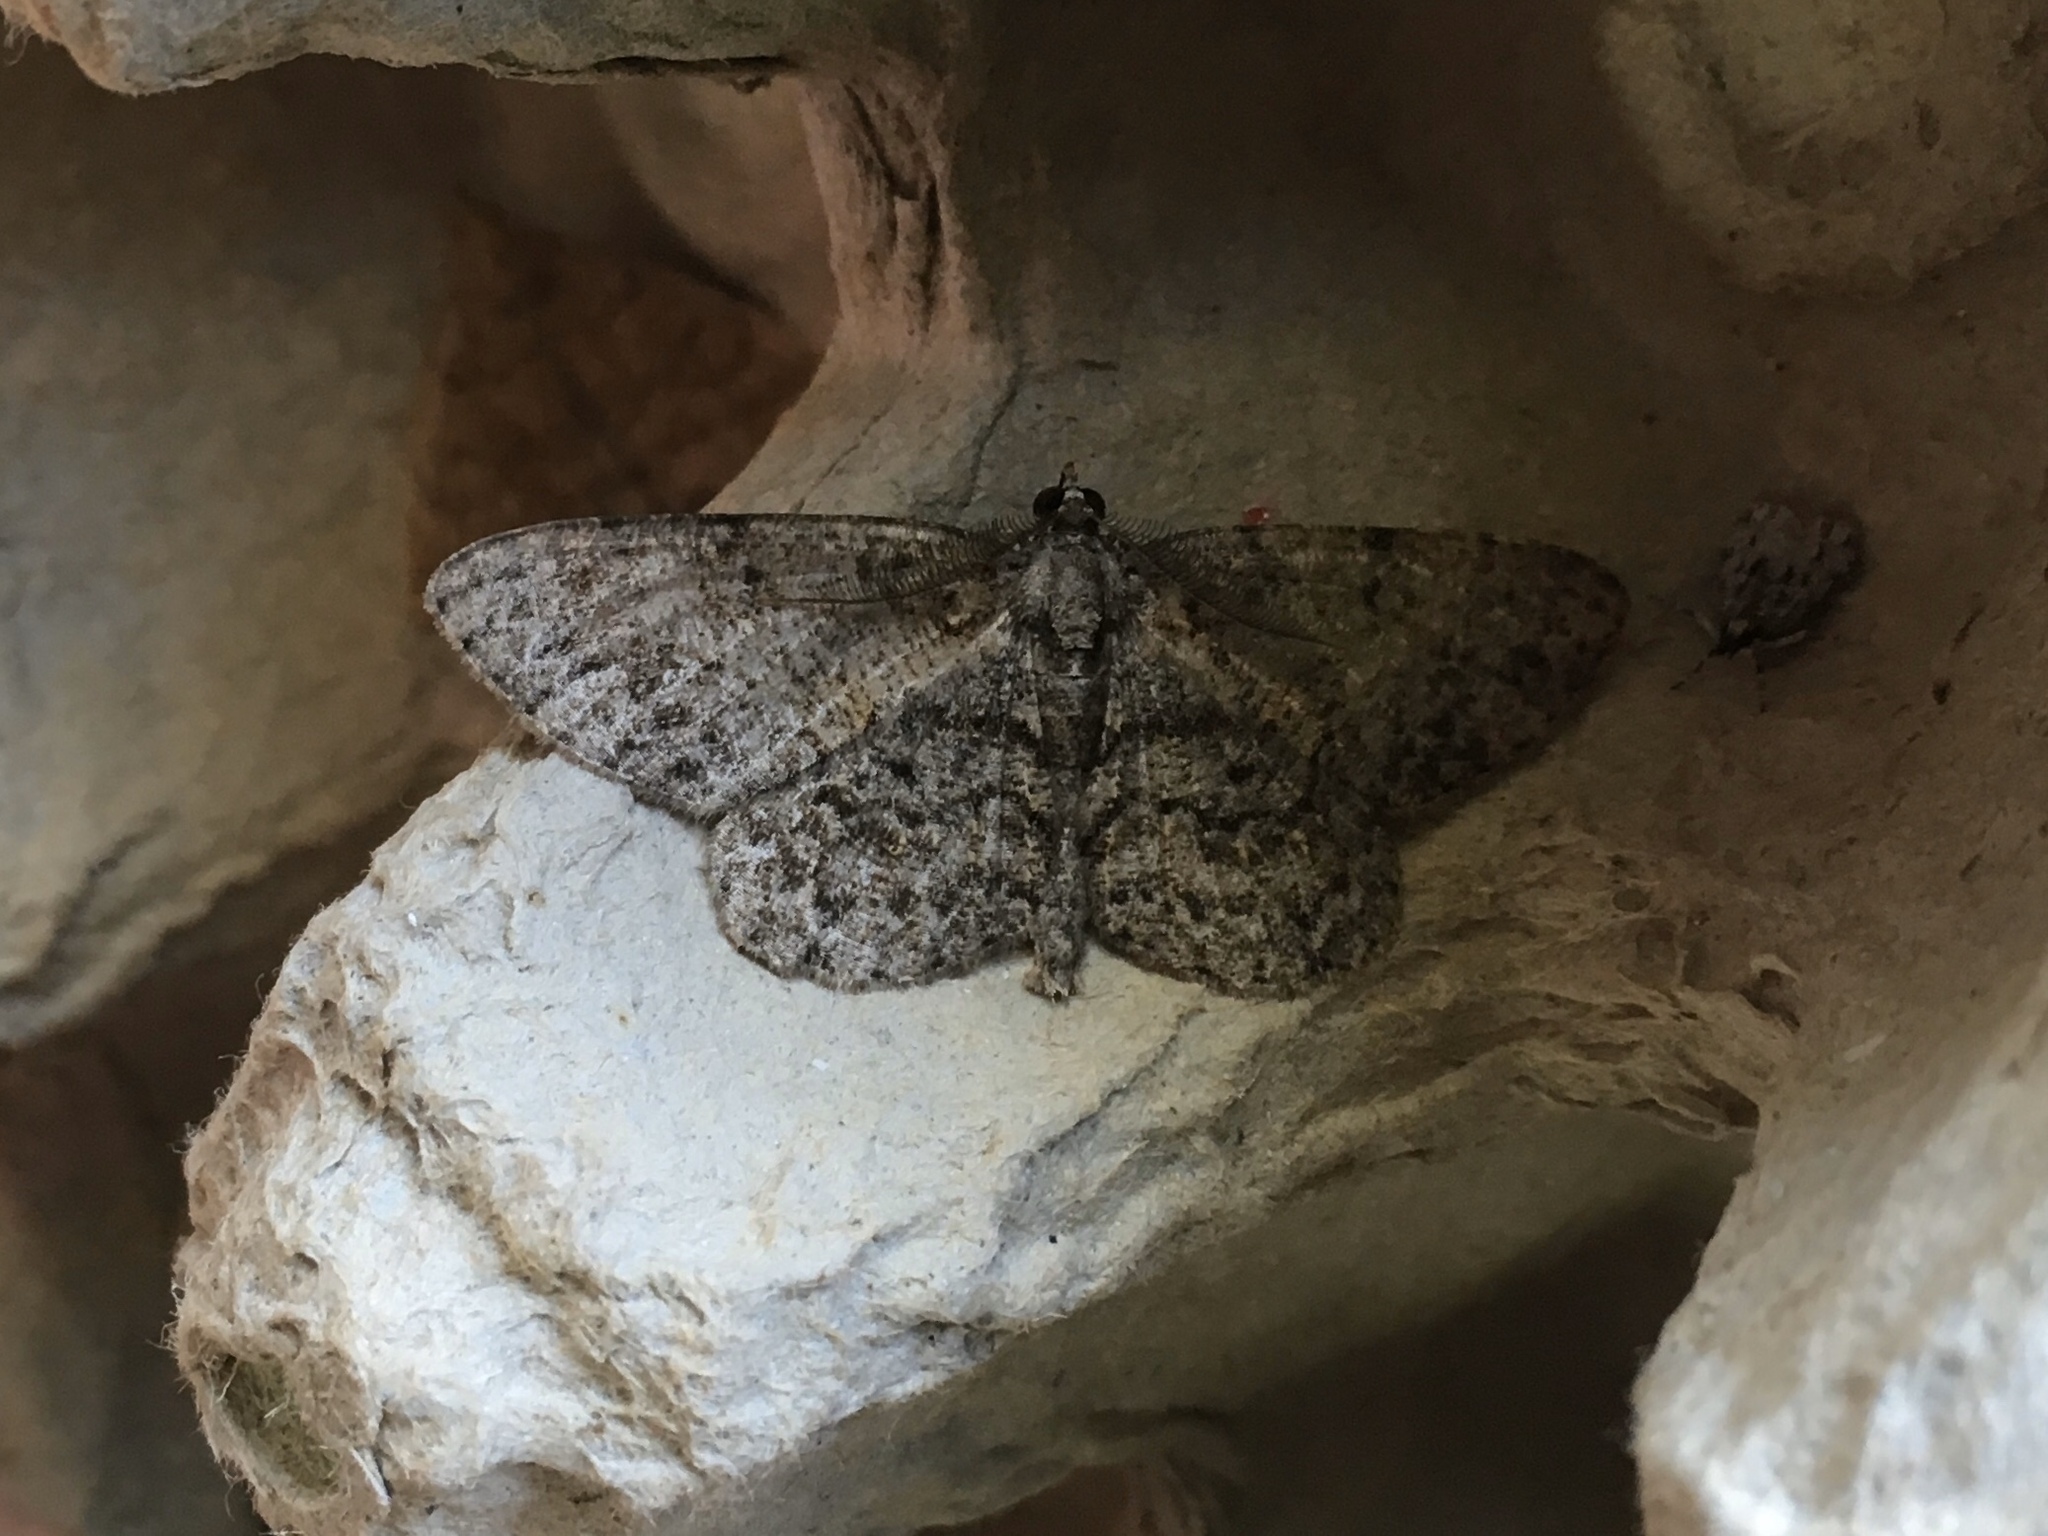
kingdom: Animalia
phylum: Arthropoda
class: Insecta
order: Lepidoptera
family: Geometridae
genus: Protoboarmia
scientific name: Protoboarmia porcelaria
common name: Porcelain gray
